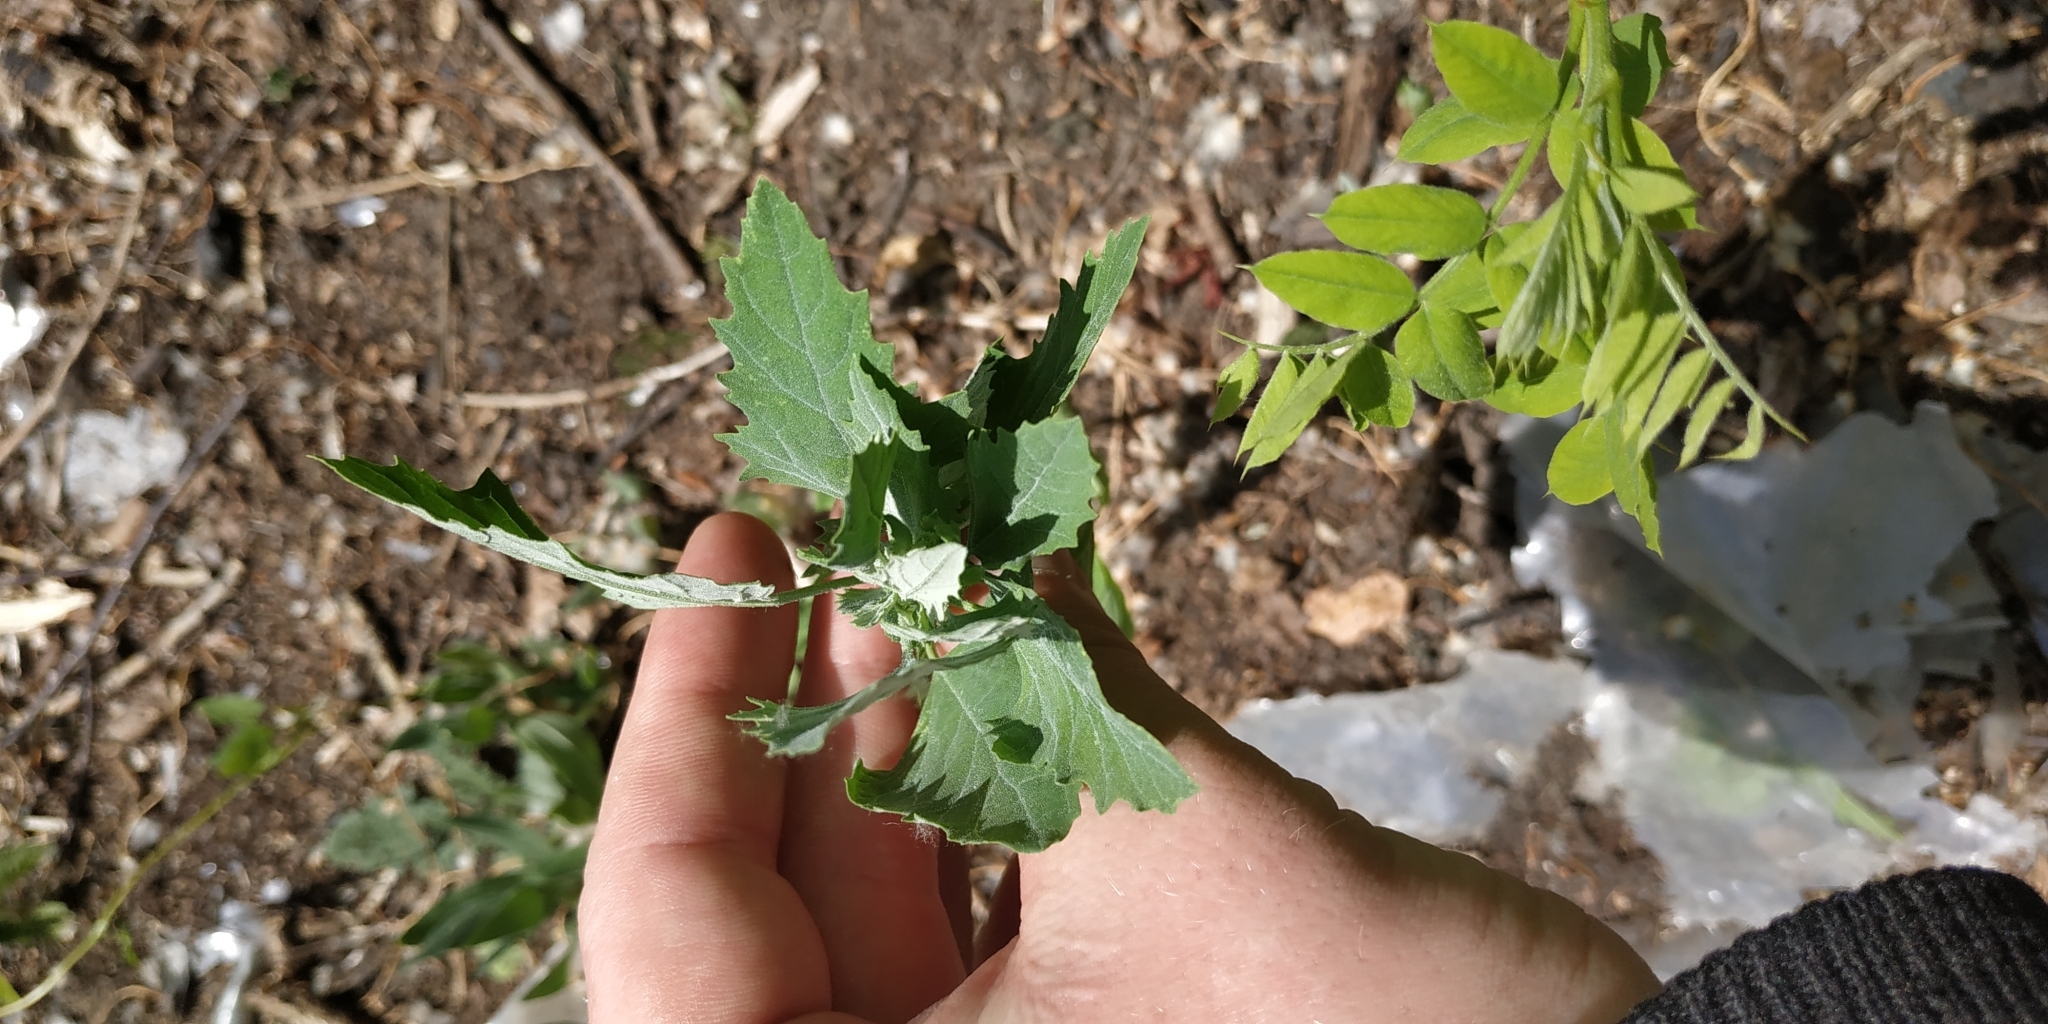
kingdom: Plantae
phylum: Tracheophyta
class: Magnoliopsida
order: Caryophyllales
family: Amaranthaceae
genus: Chenopodium
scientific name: Chenopodium album
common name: Fat-hen
